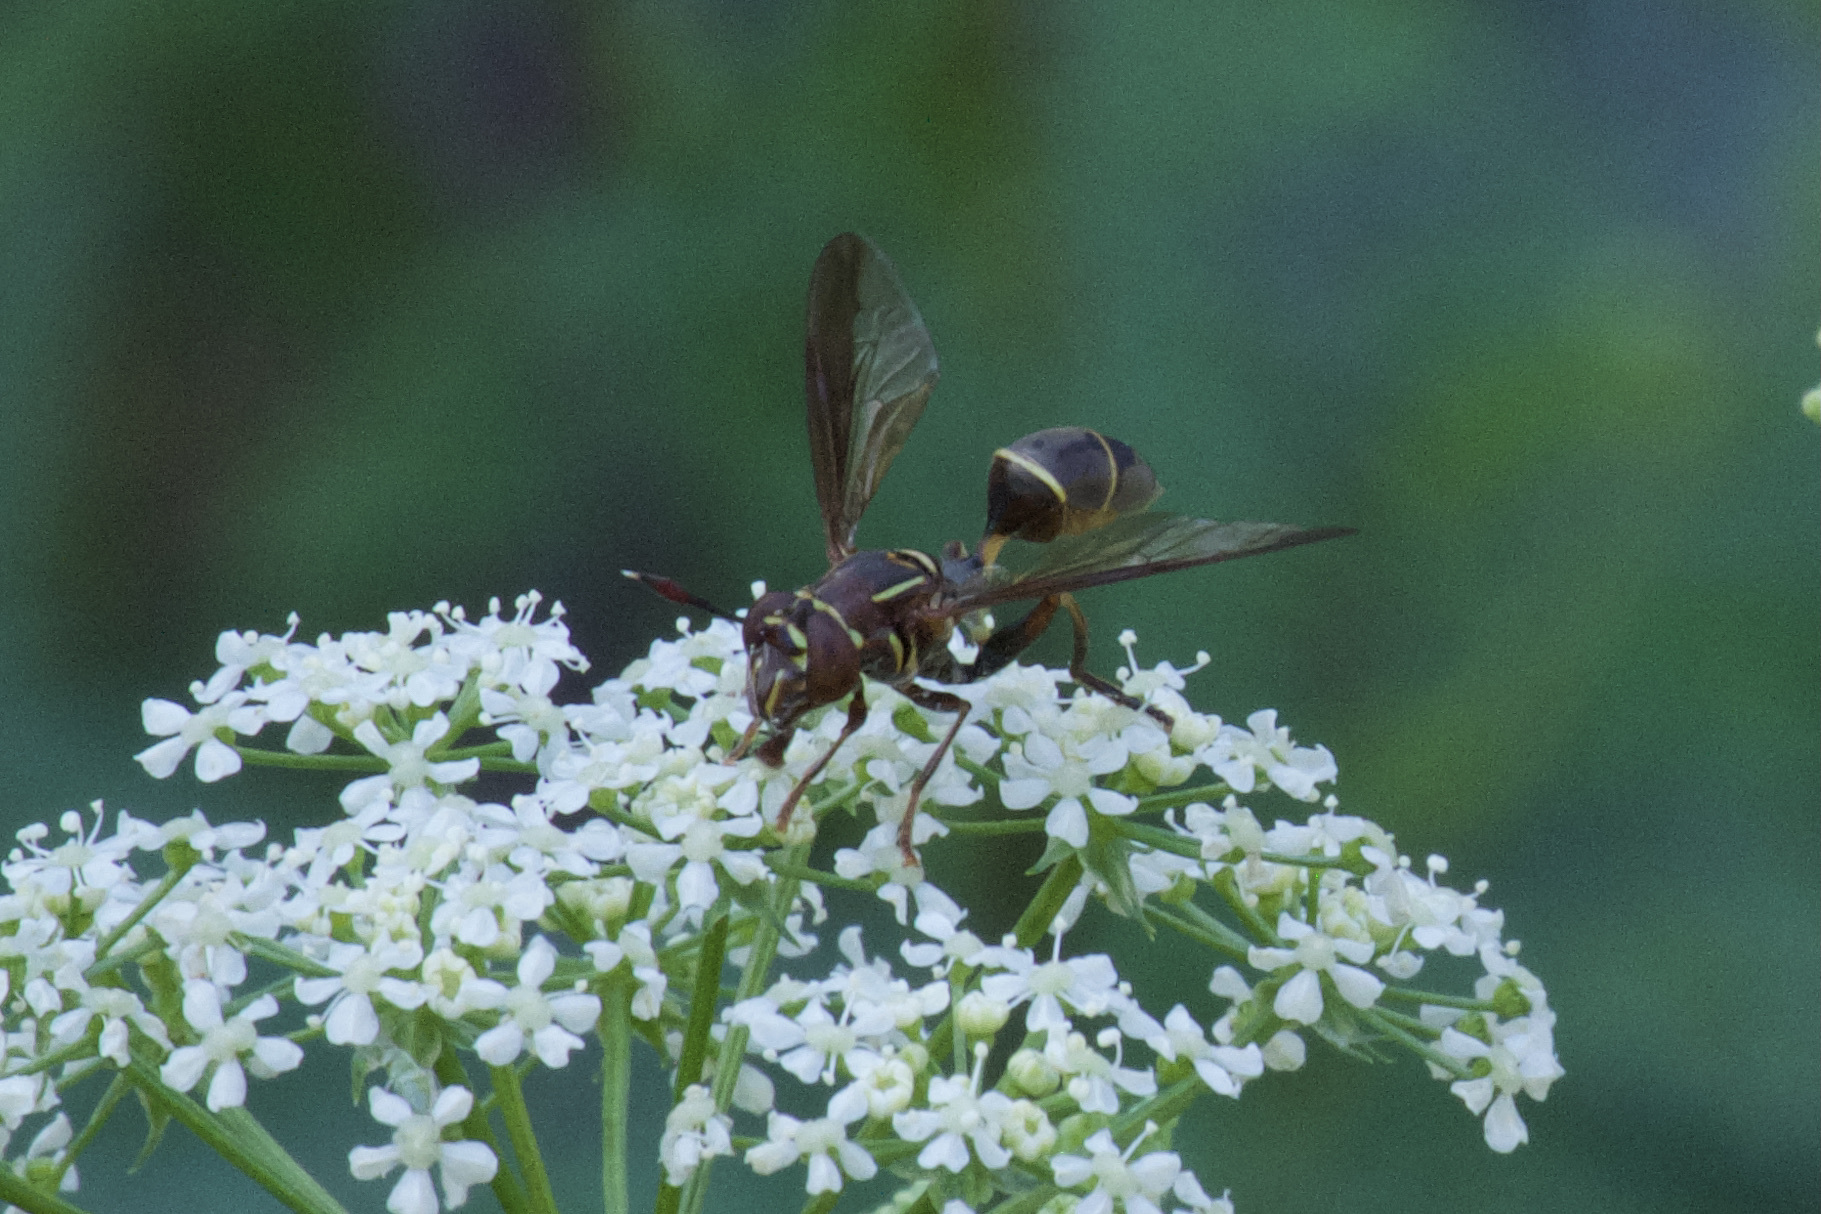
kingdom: Animalia
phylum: Arthropoda
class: Insecta
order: Diptera
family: Syrphidae
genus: Polybiomyia
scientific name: Polybiomyia schnablei
